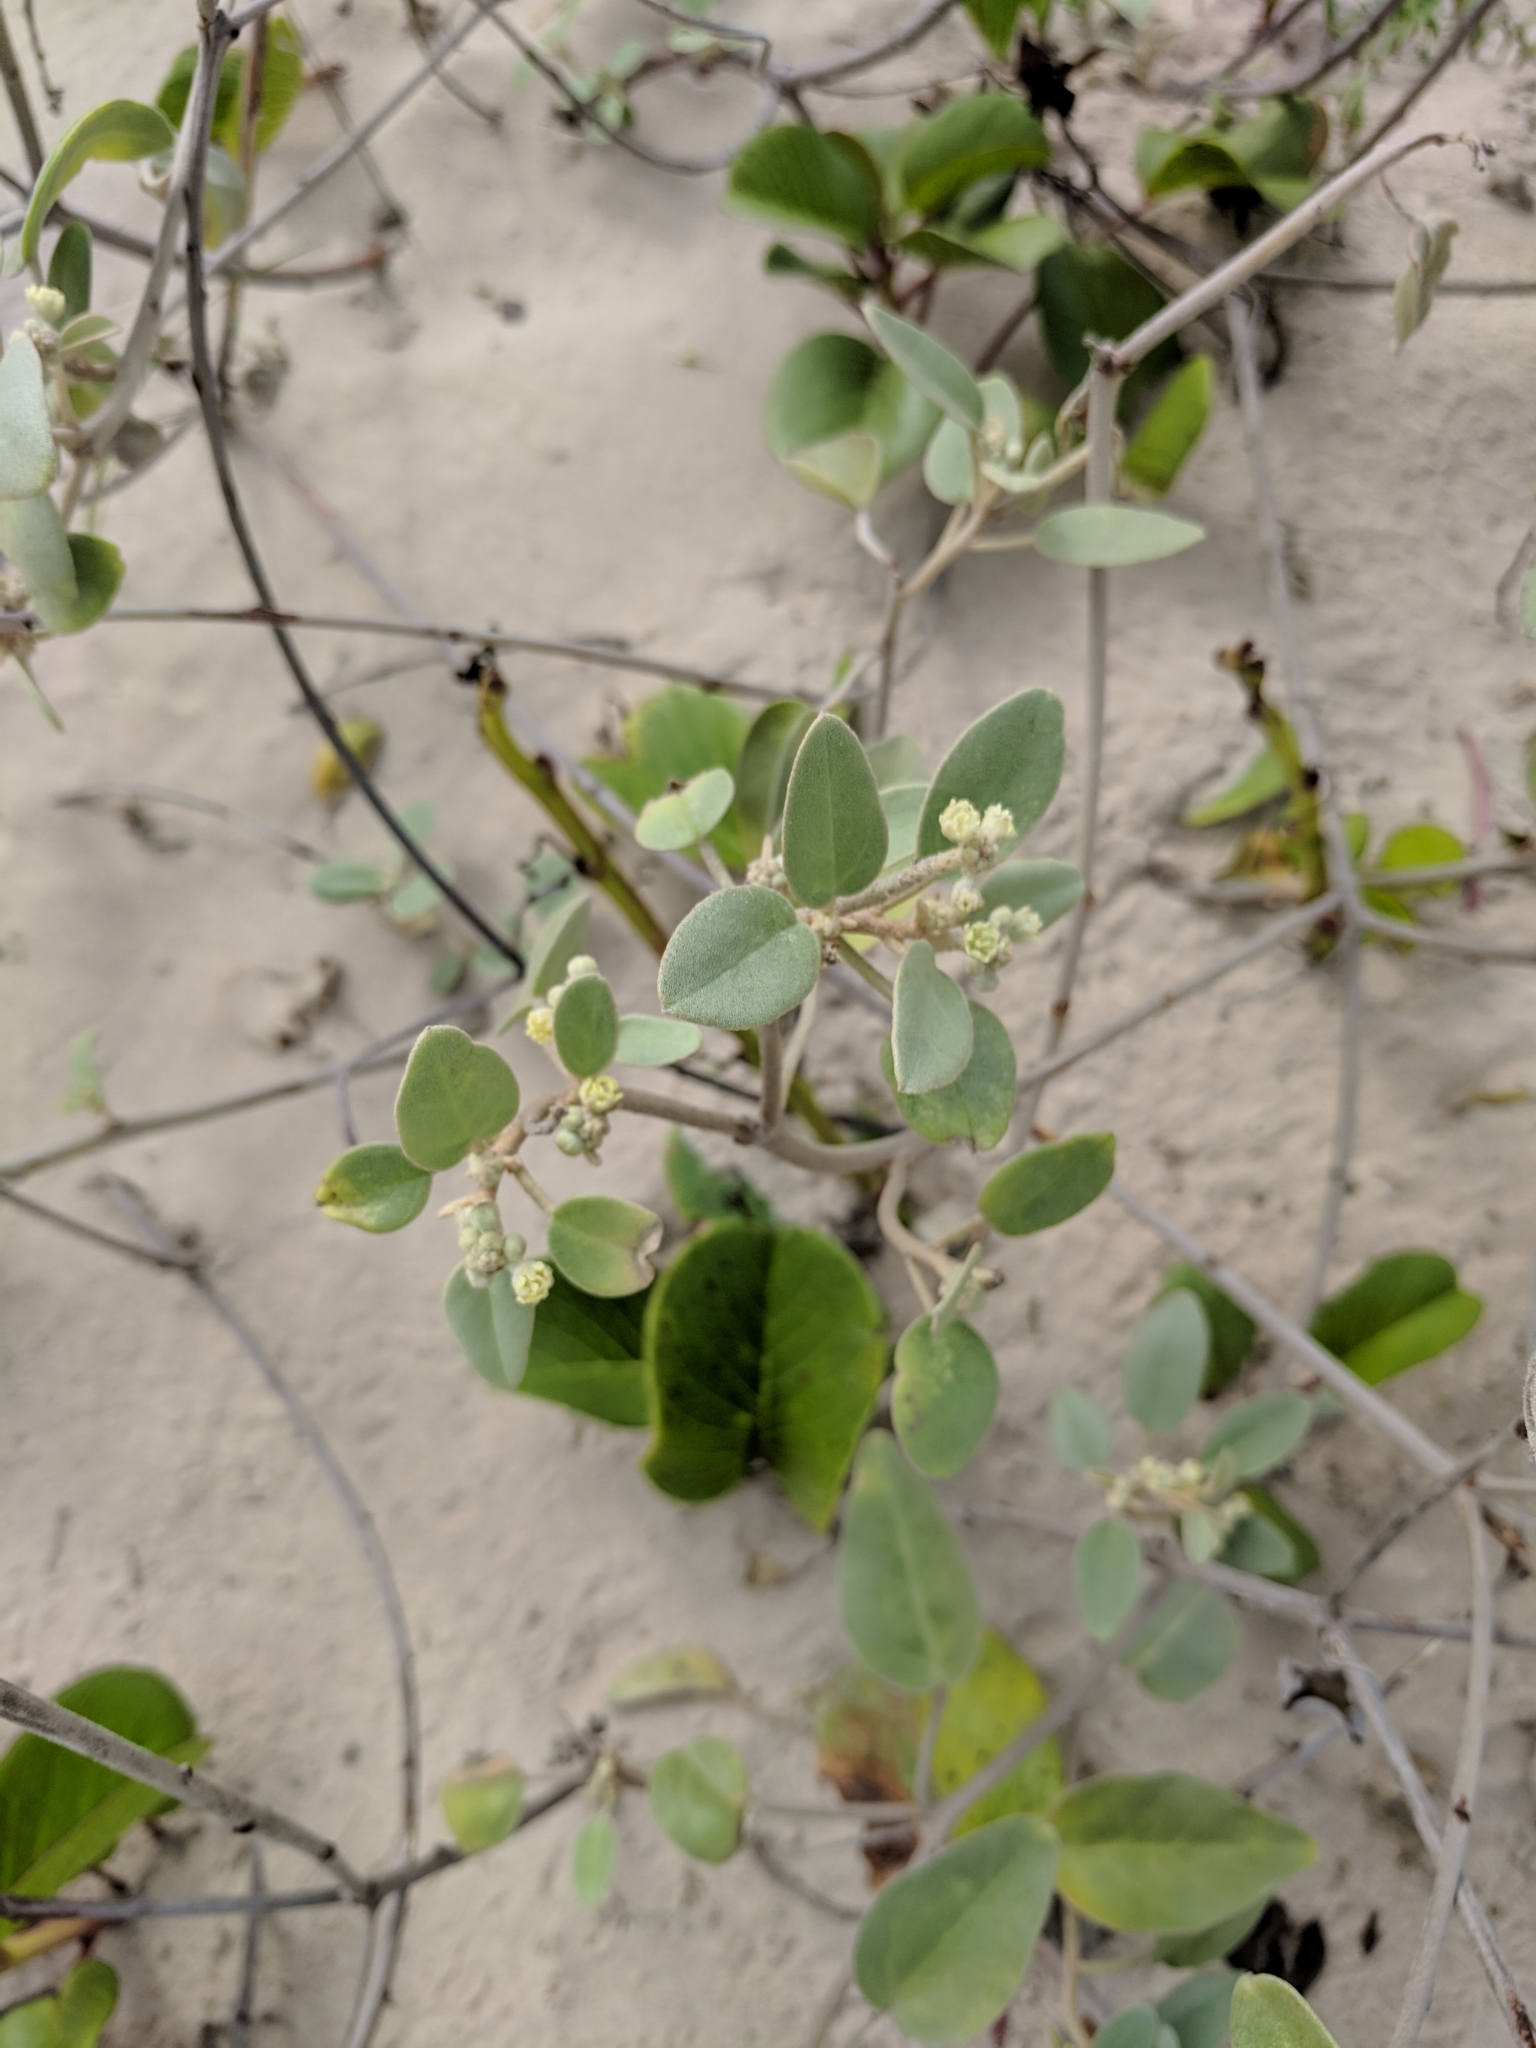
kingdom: Plantae
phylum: Tracheophyta
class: Magnoliopsida
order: Malpighiales
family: Euphorbiaceae
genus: Croton
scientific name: Croton punctatus
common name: Beach-tea
